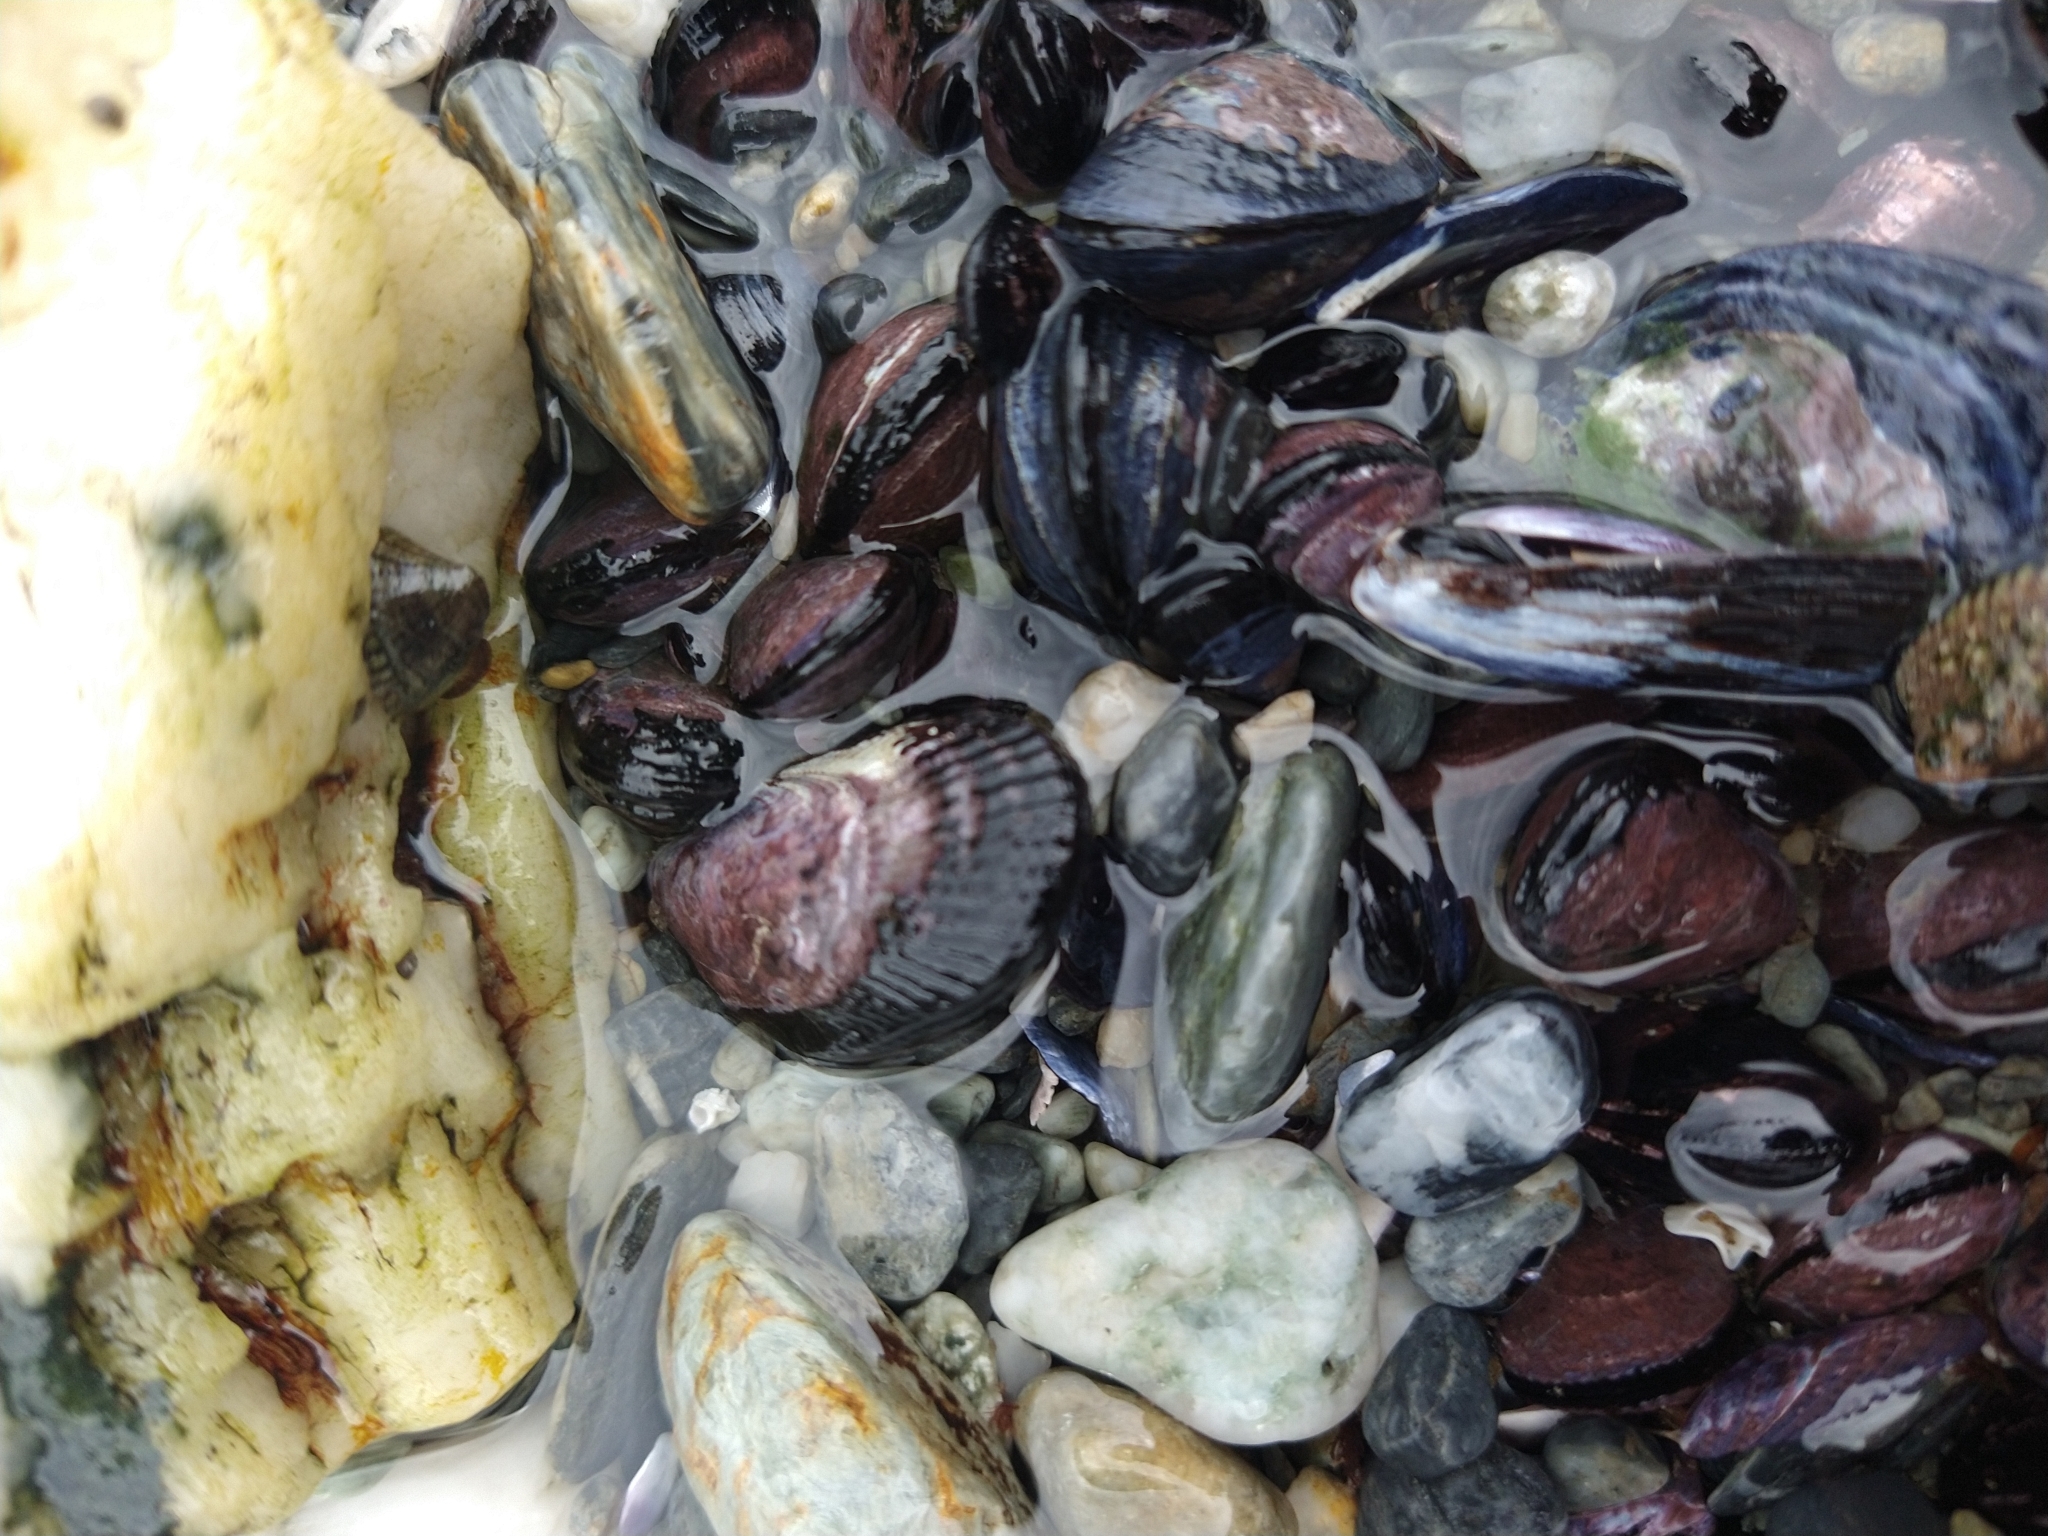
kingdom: Animalia
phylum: Mollusca
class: Bivalvia
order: Mytilida
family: Mytilidae
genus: Perumytilus
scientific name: Perumytilus purpuratus
